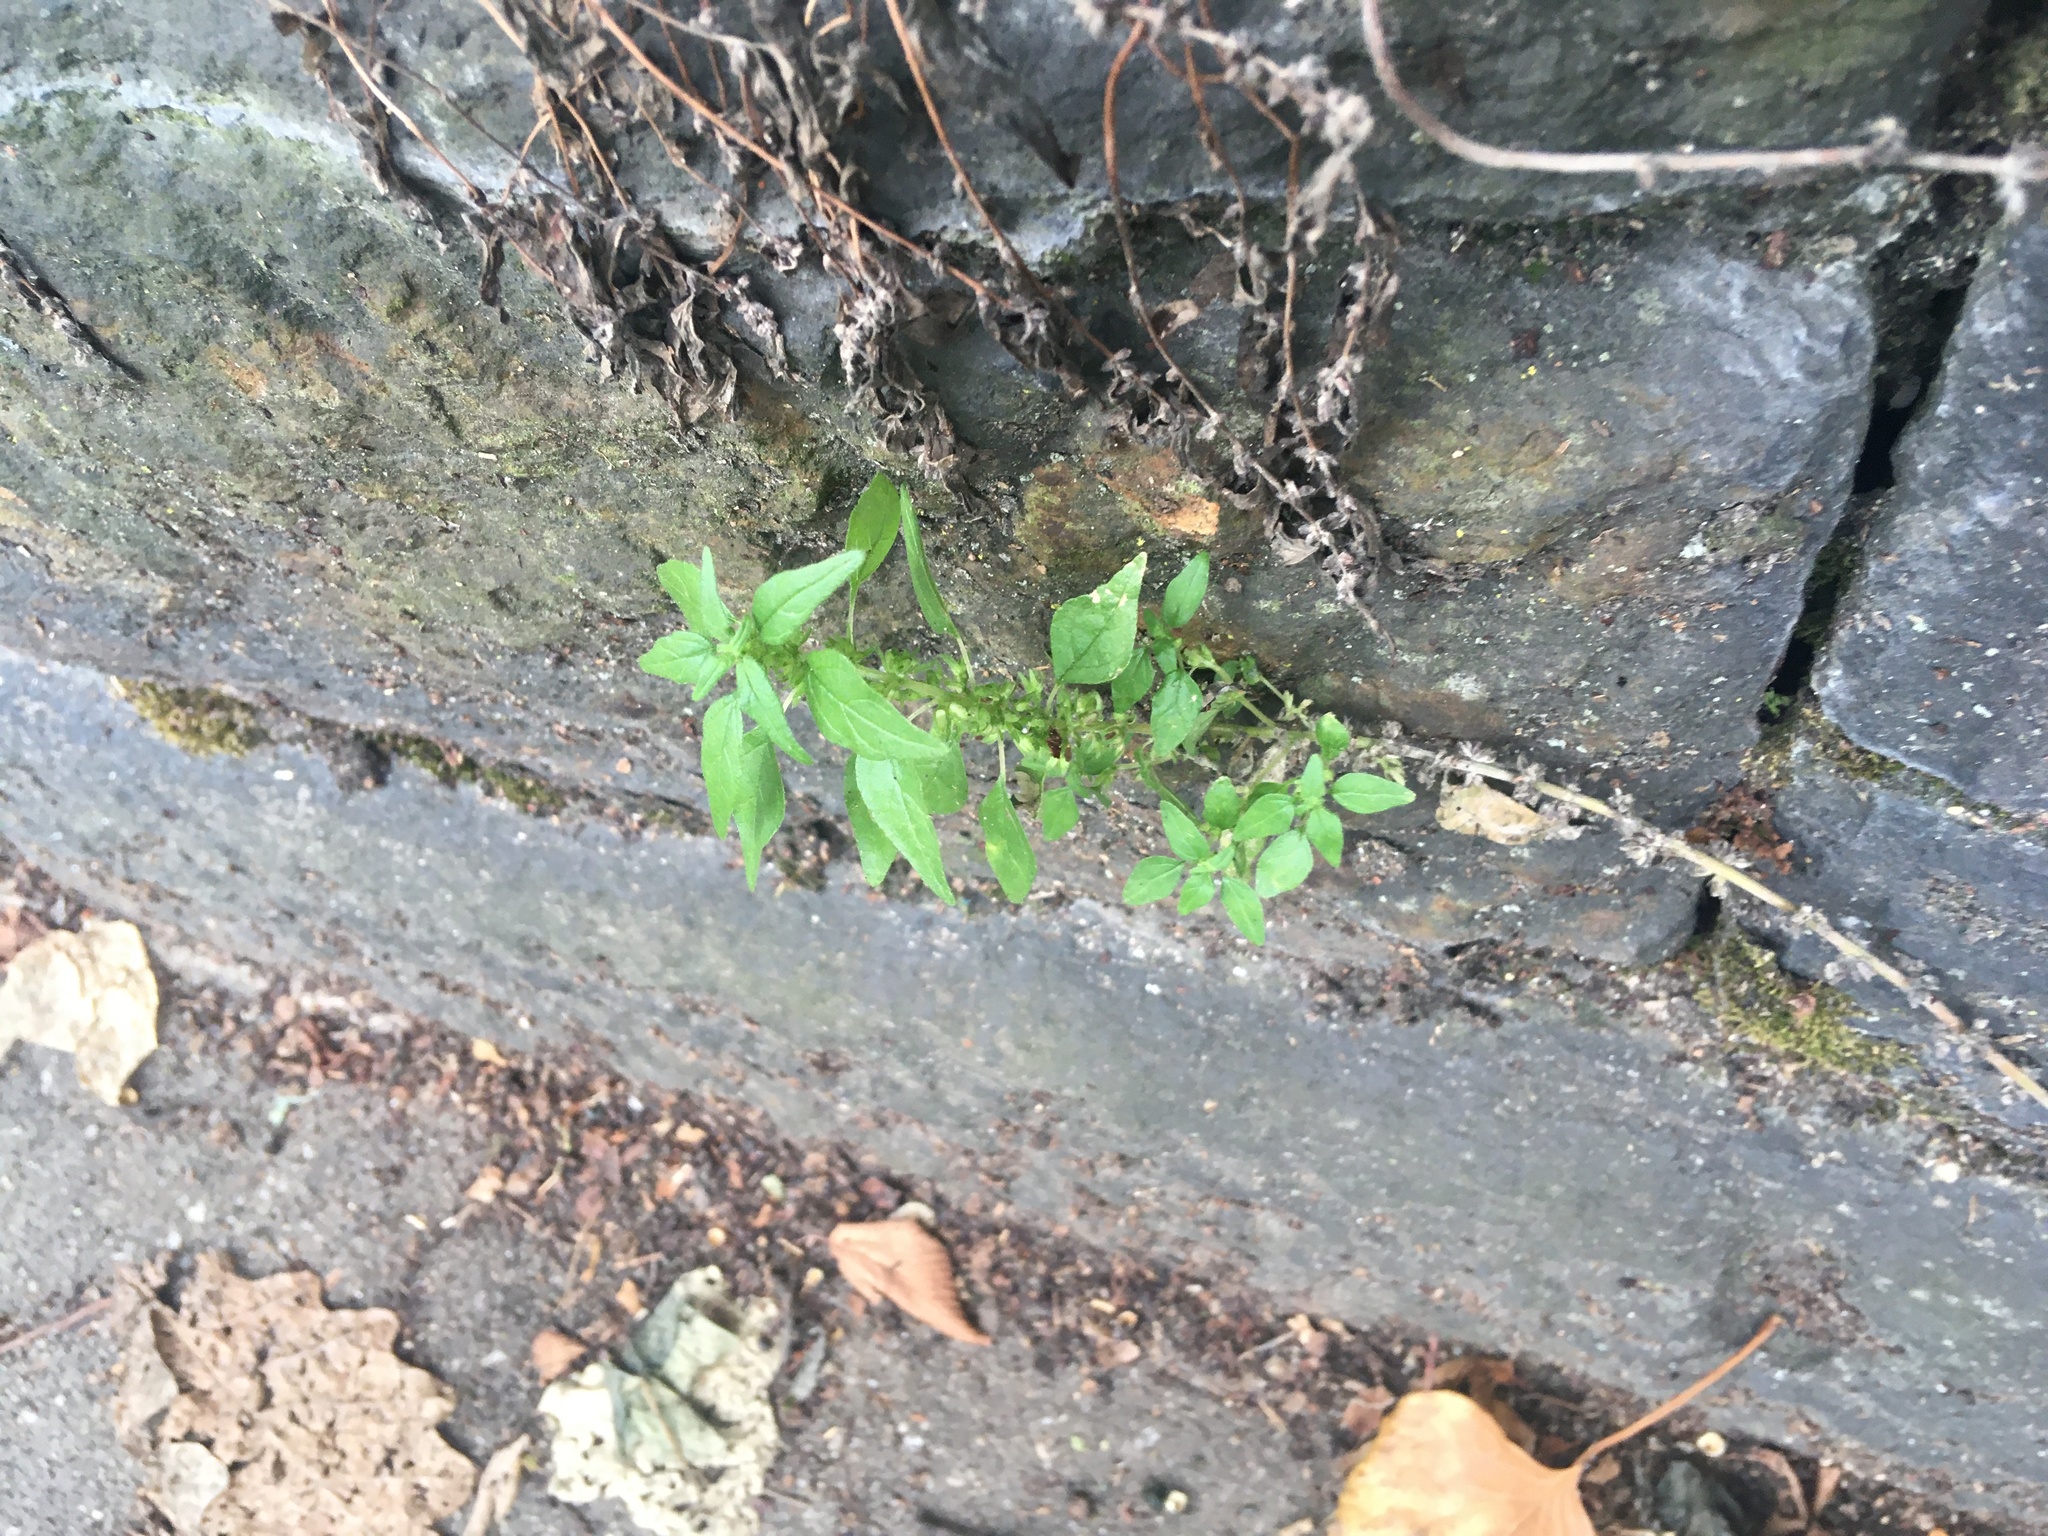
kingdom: Plantae
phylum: Tracheophyta
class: Magnoliopsida
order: Rosales
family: Urticaceae
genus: Parietaria
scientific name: Parietaria pensylvanica
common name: Pennsylvania pellitory
